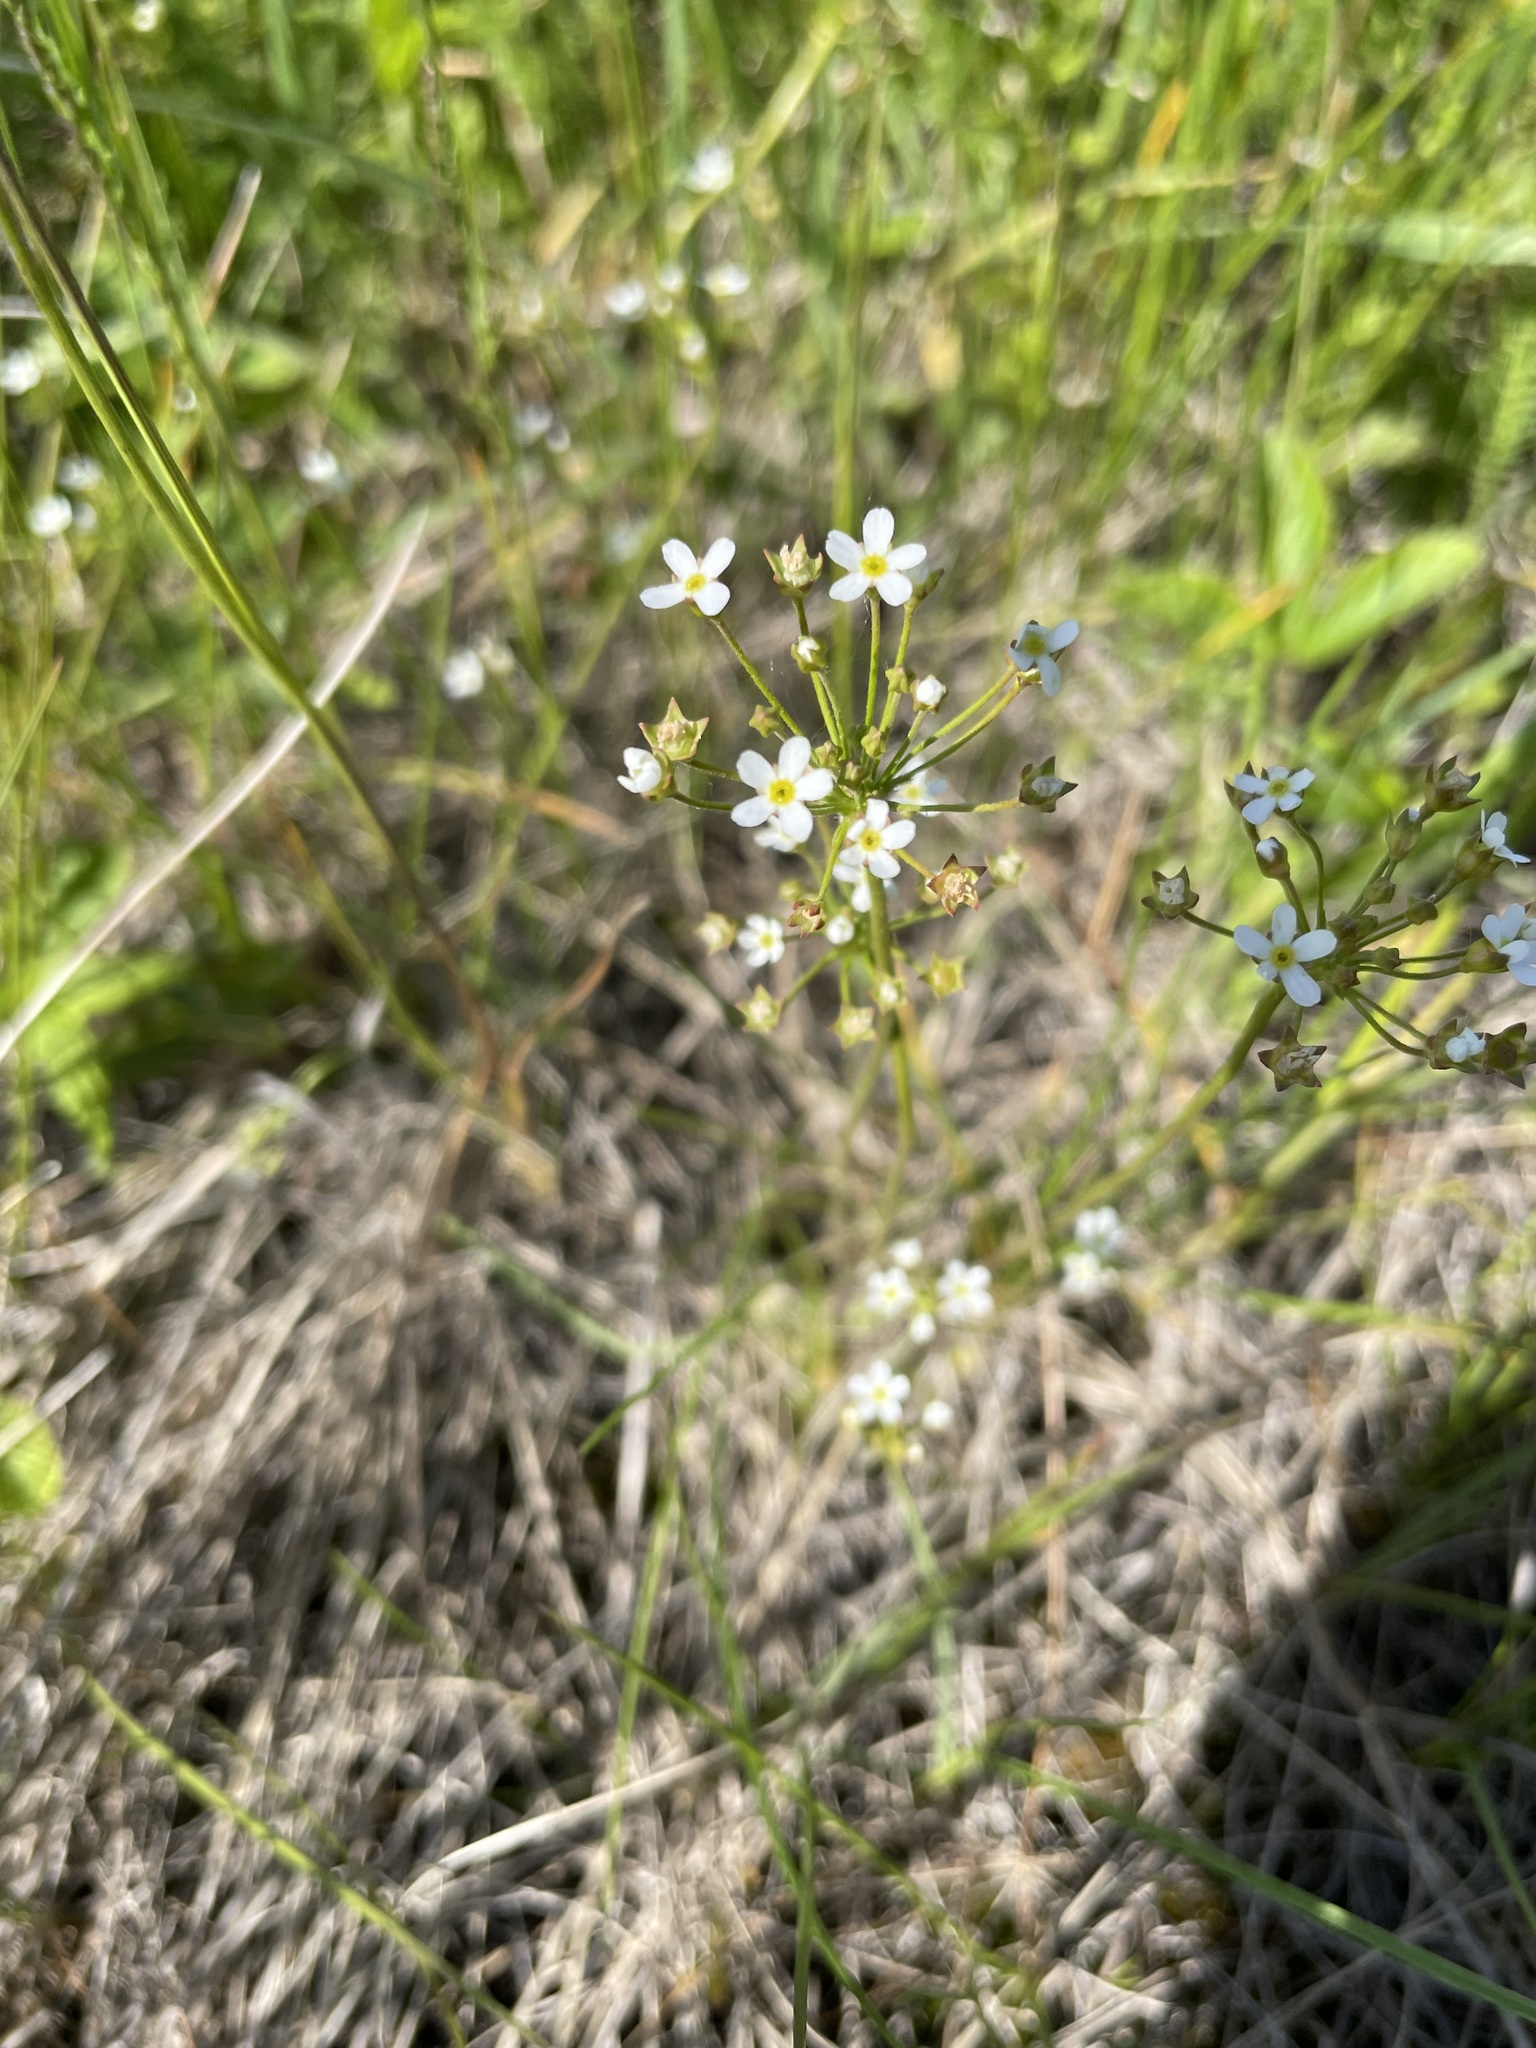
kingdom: Plantae
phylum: Tracheophyta
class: Magnoliopsida
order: Ericales
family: Primulaceae
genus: Androsace
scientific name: Androsace septentrionalis
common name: Hairy northern fairy-candelabra
